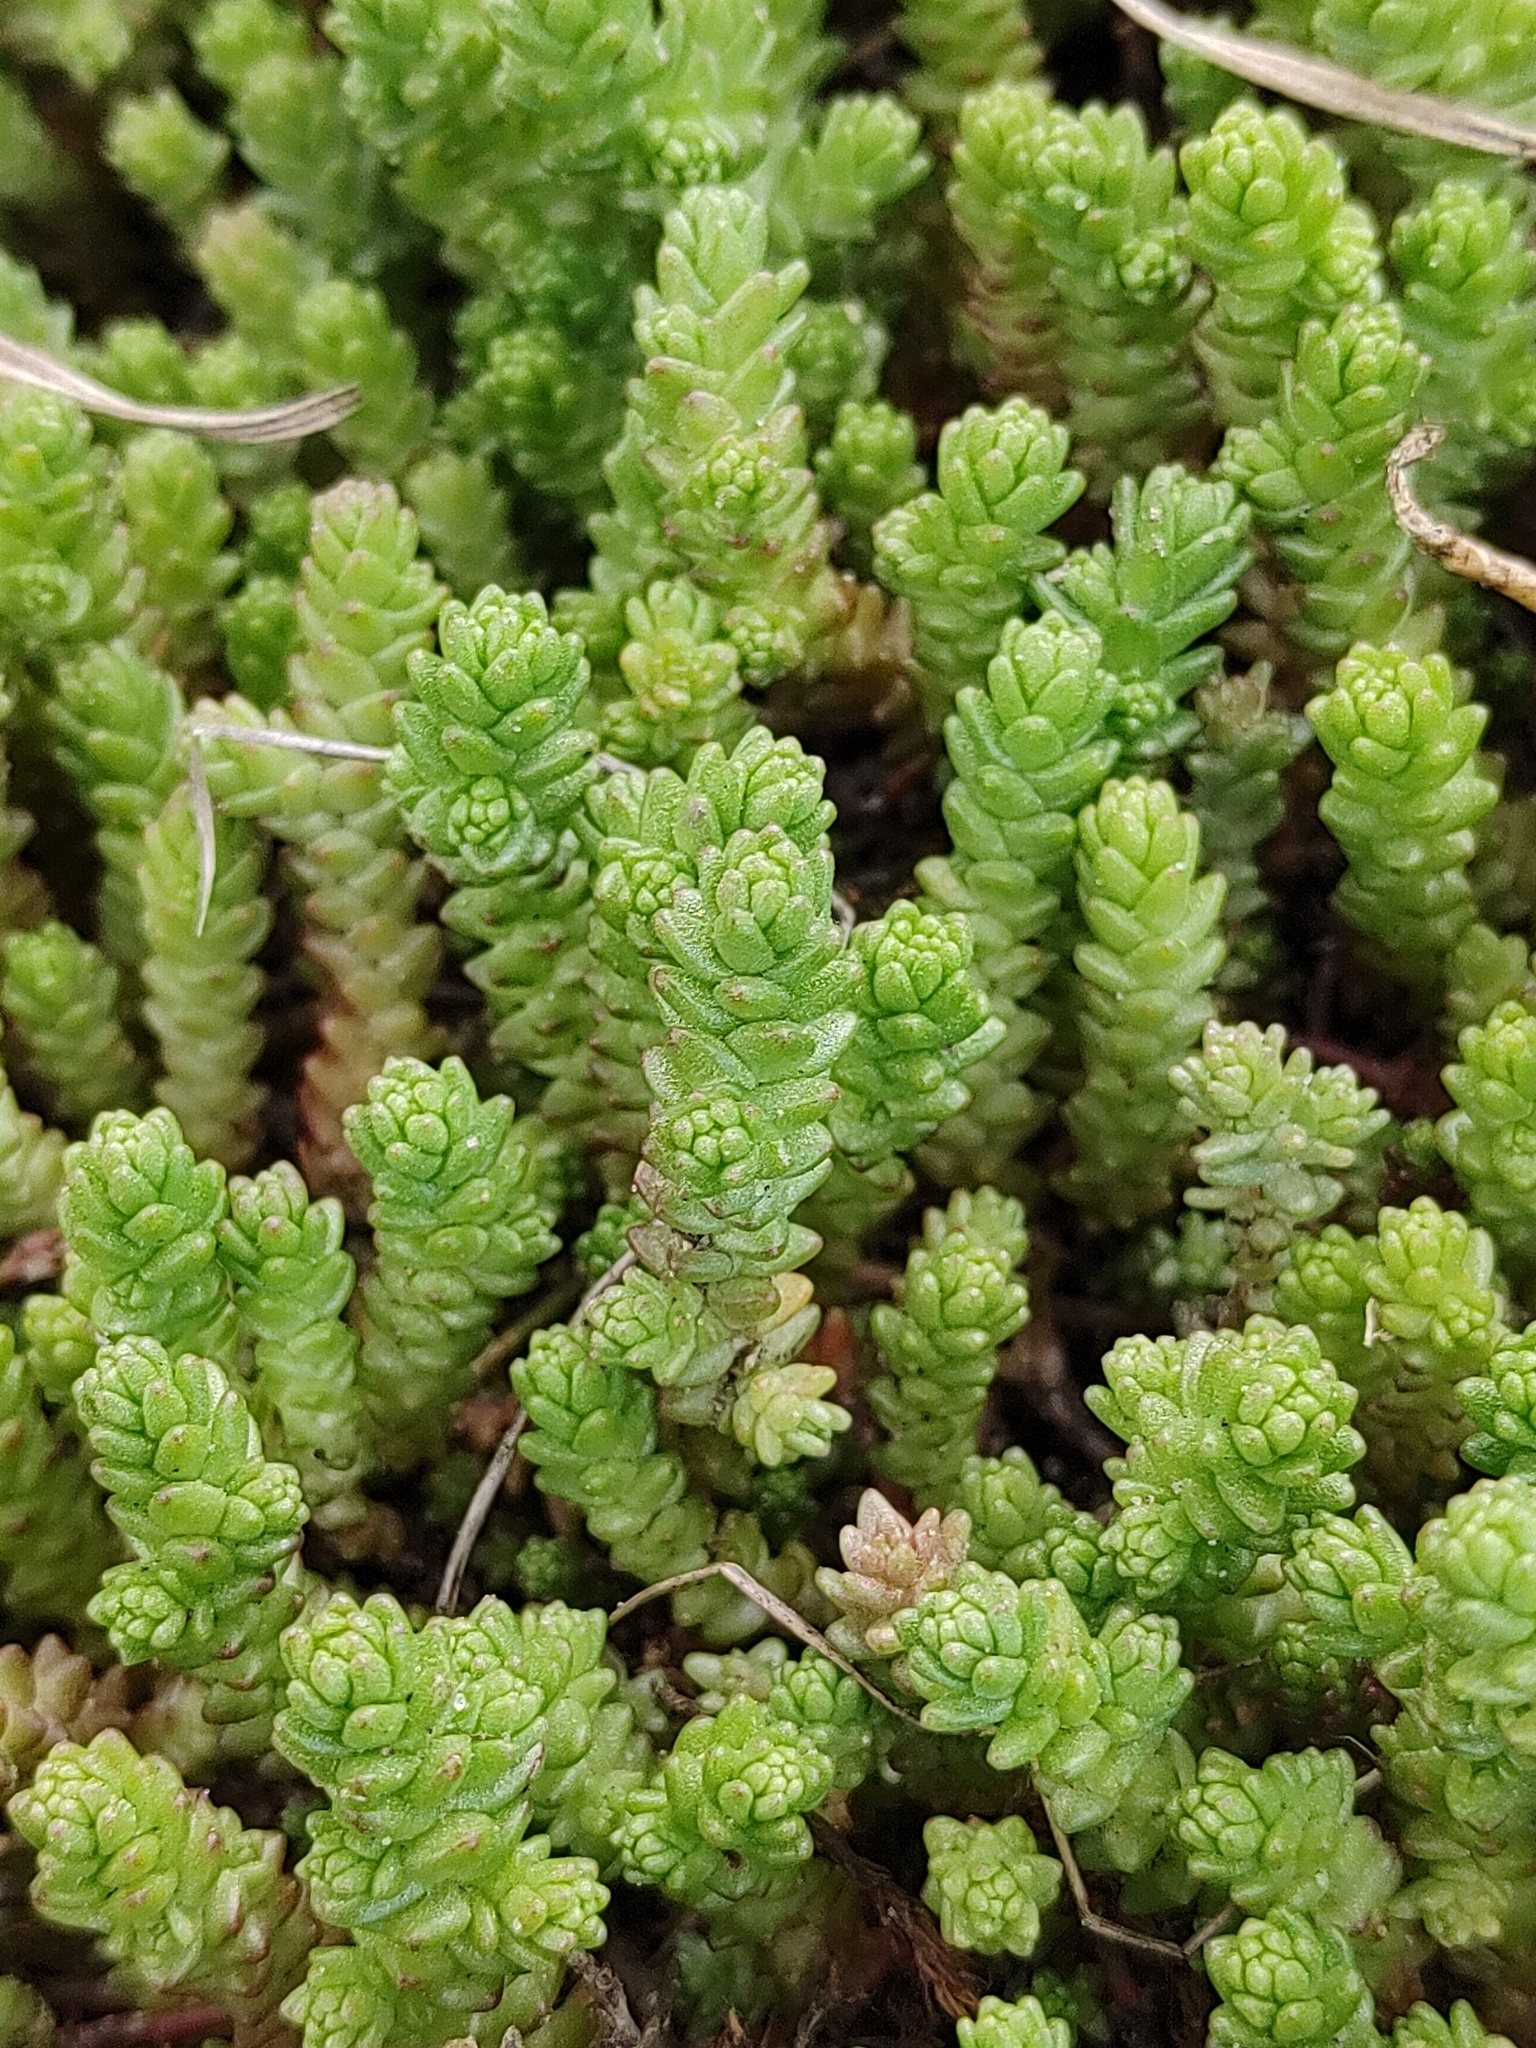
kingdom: Plantae
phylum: Tracheophyta
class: Magnoliopsida
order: Saxifragales
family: Crassulaceae
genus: Sedum
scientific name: Sedum acre
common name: Biting stonecrop
